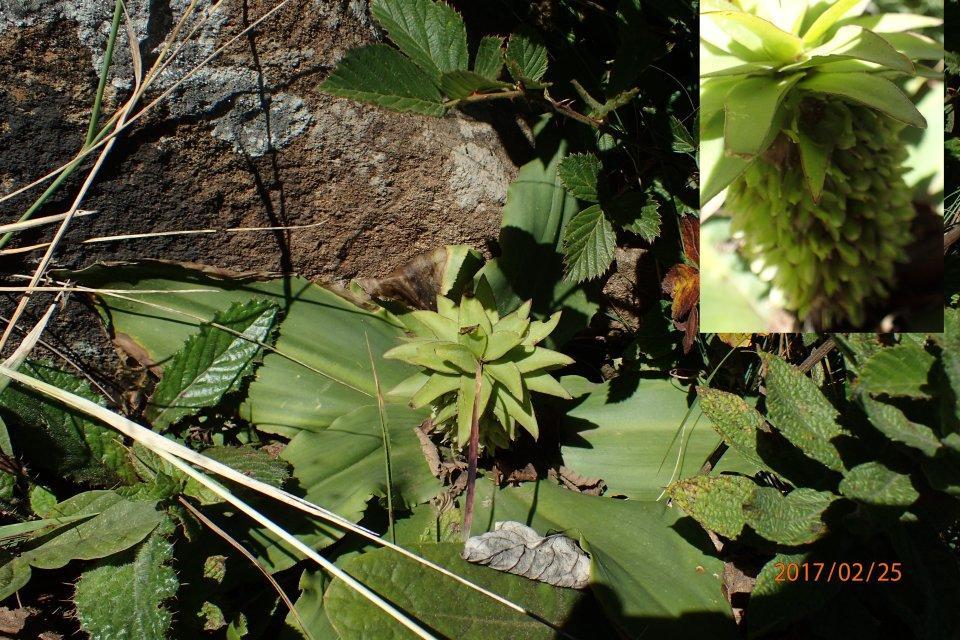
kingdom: Plantae
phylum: Tracheophyta
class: Liliopsida
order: Asparagales
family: Asparagaceae
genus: Eucomis
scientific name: Eucomis autumnalis
